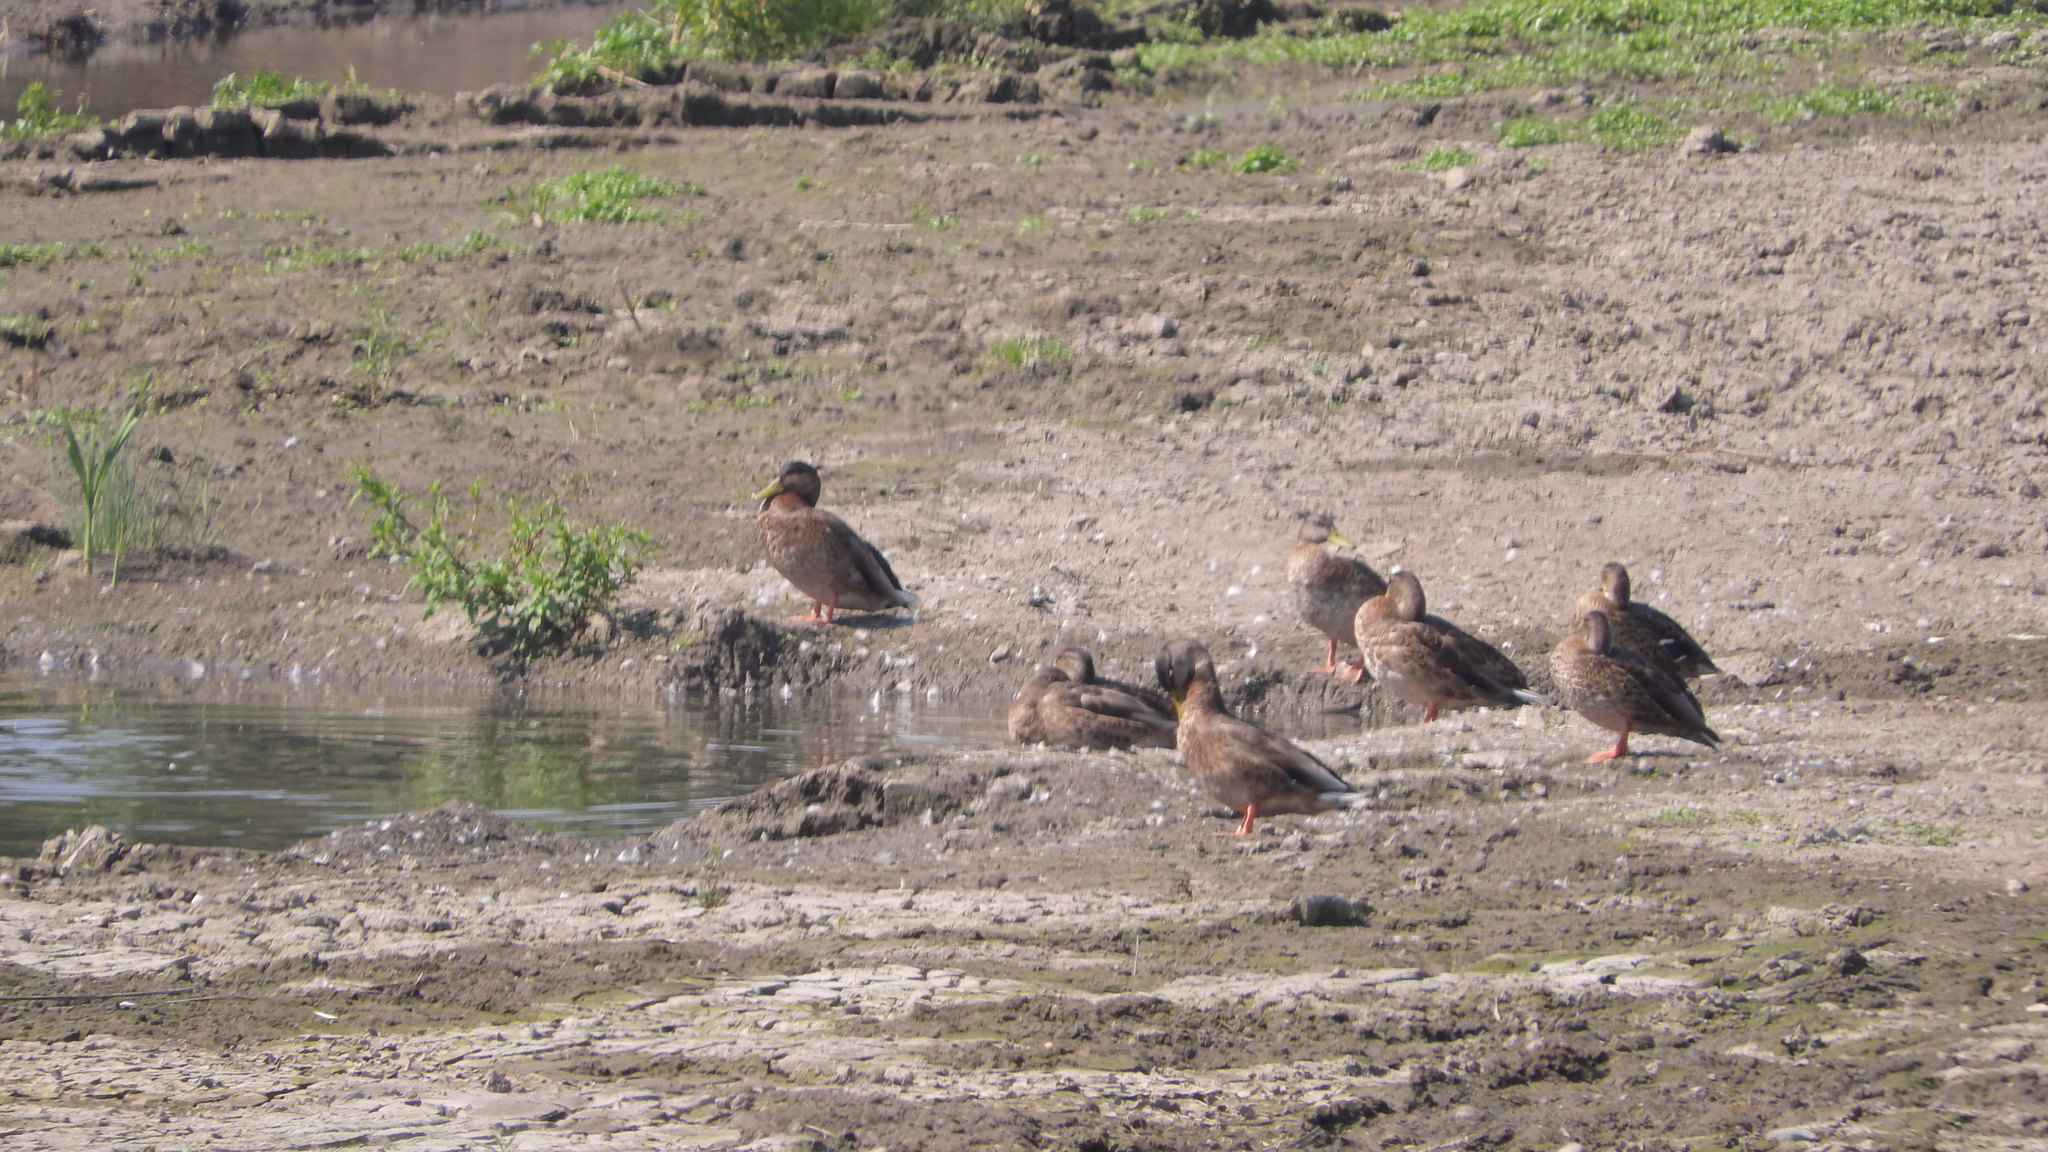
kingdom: Animalia
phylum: Chordata
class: Aves
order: Anseriformes
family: Anatidae
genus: Anas
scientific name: Anas platyrhynchos
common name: Mallard
